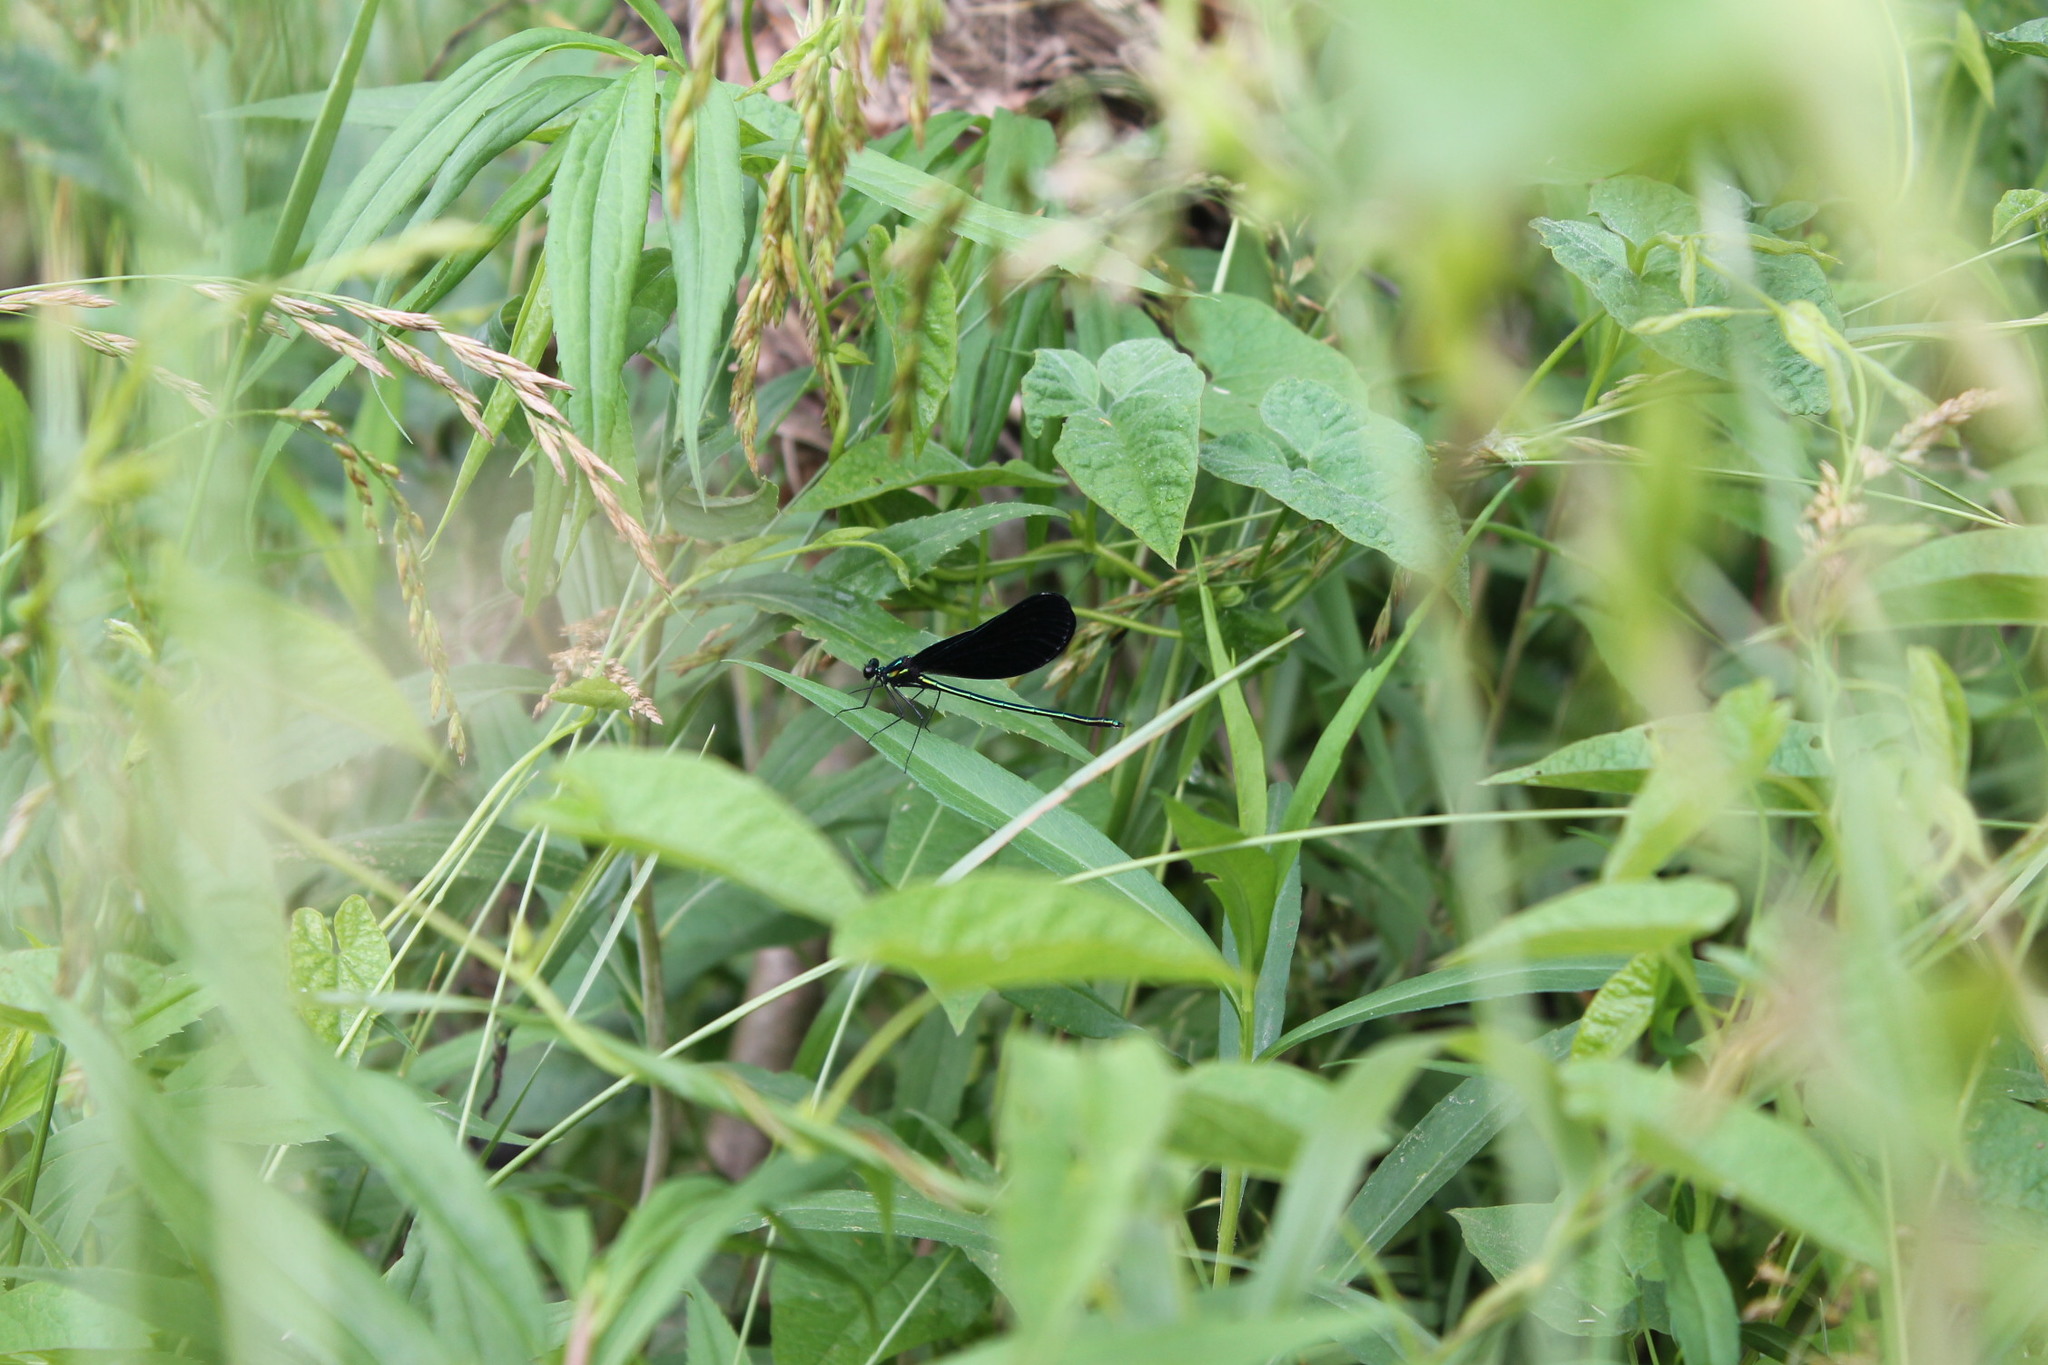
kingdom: Animalia
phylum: Arthropoda
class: Insecta
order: Odonata
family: Calopterygidae
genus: Calopteryx
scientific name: Calopteryx maculata
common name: Ebony jewelwing
